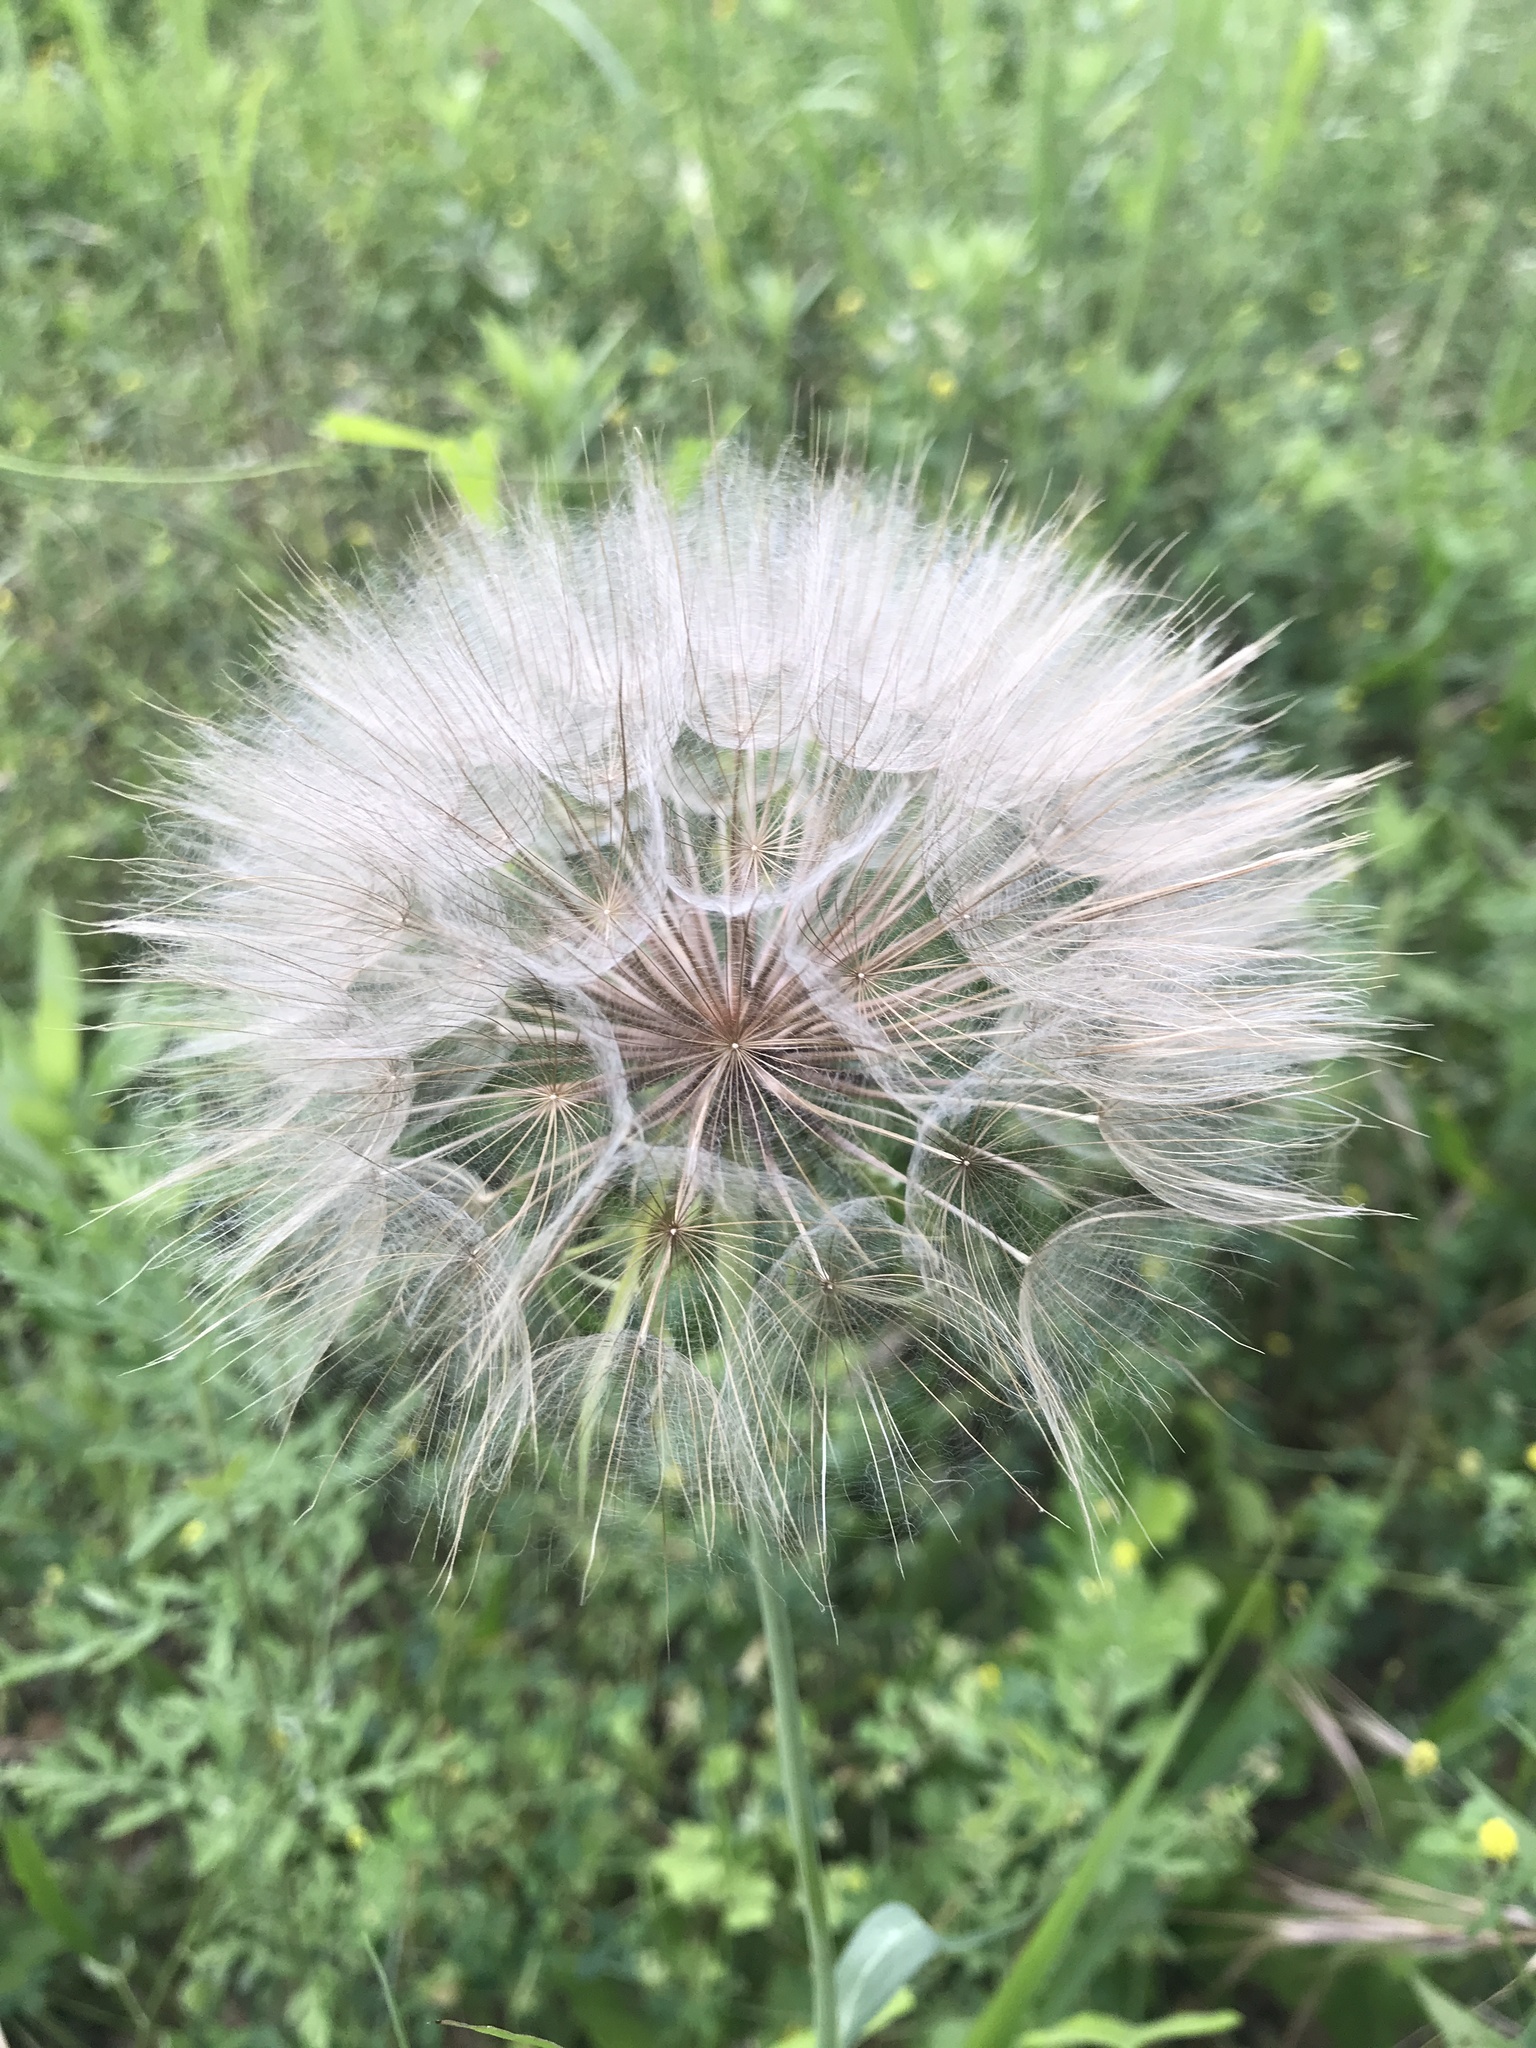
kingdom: Plantae
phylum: Tracheophyta
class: Magnoliopsida
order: Asterales
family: Asteraceae
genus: Tragopogon
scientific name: Tragopogon dubius
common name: Yellow salsify
